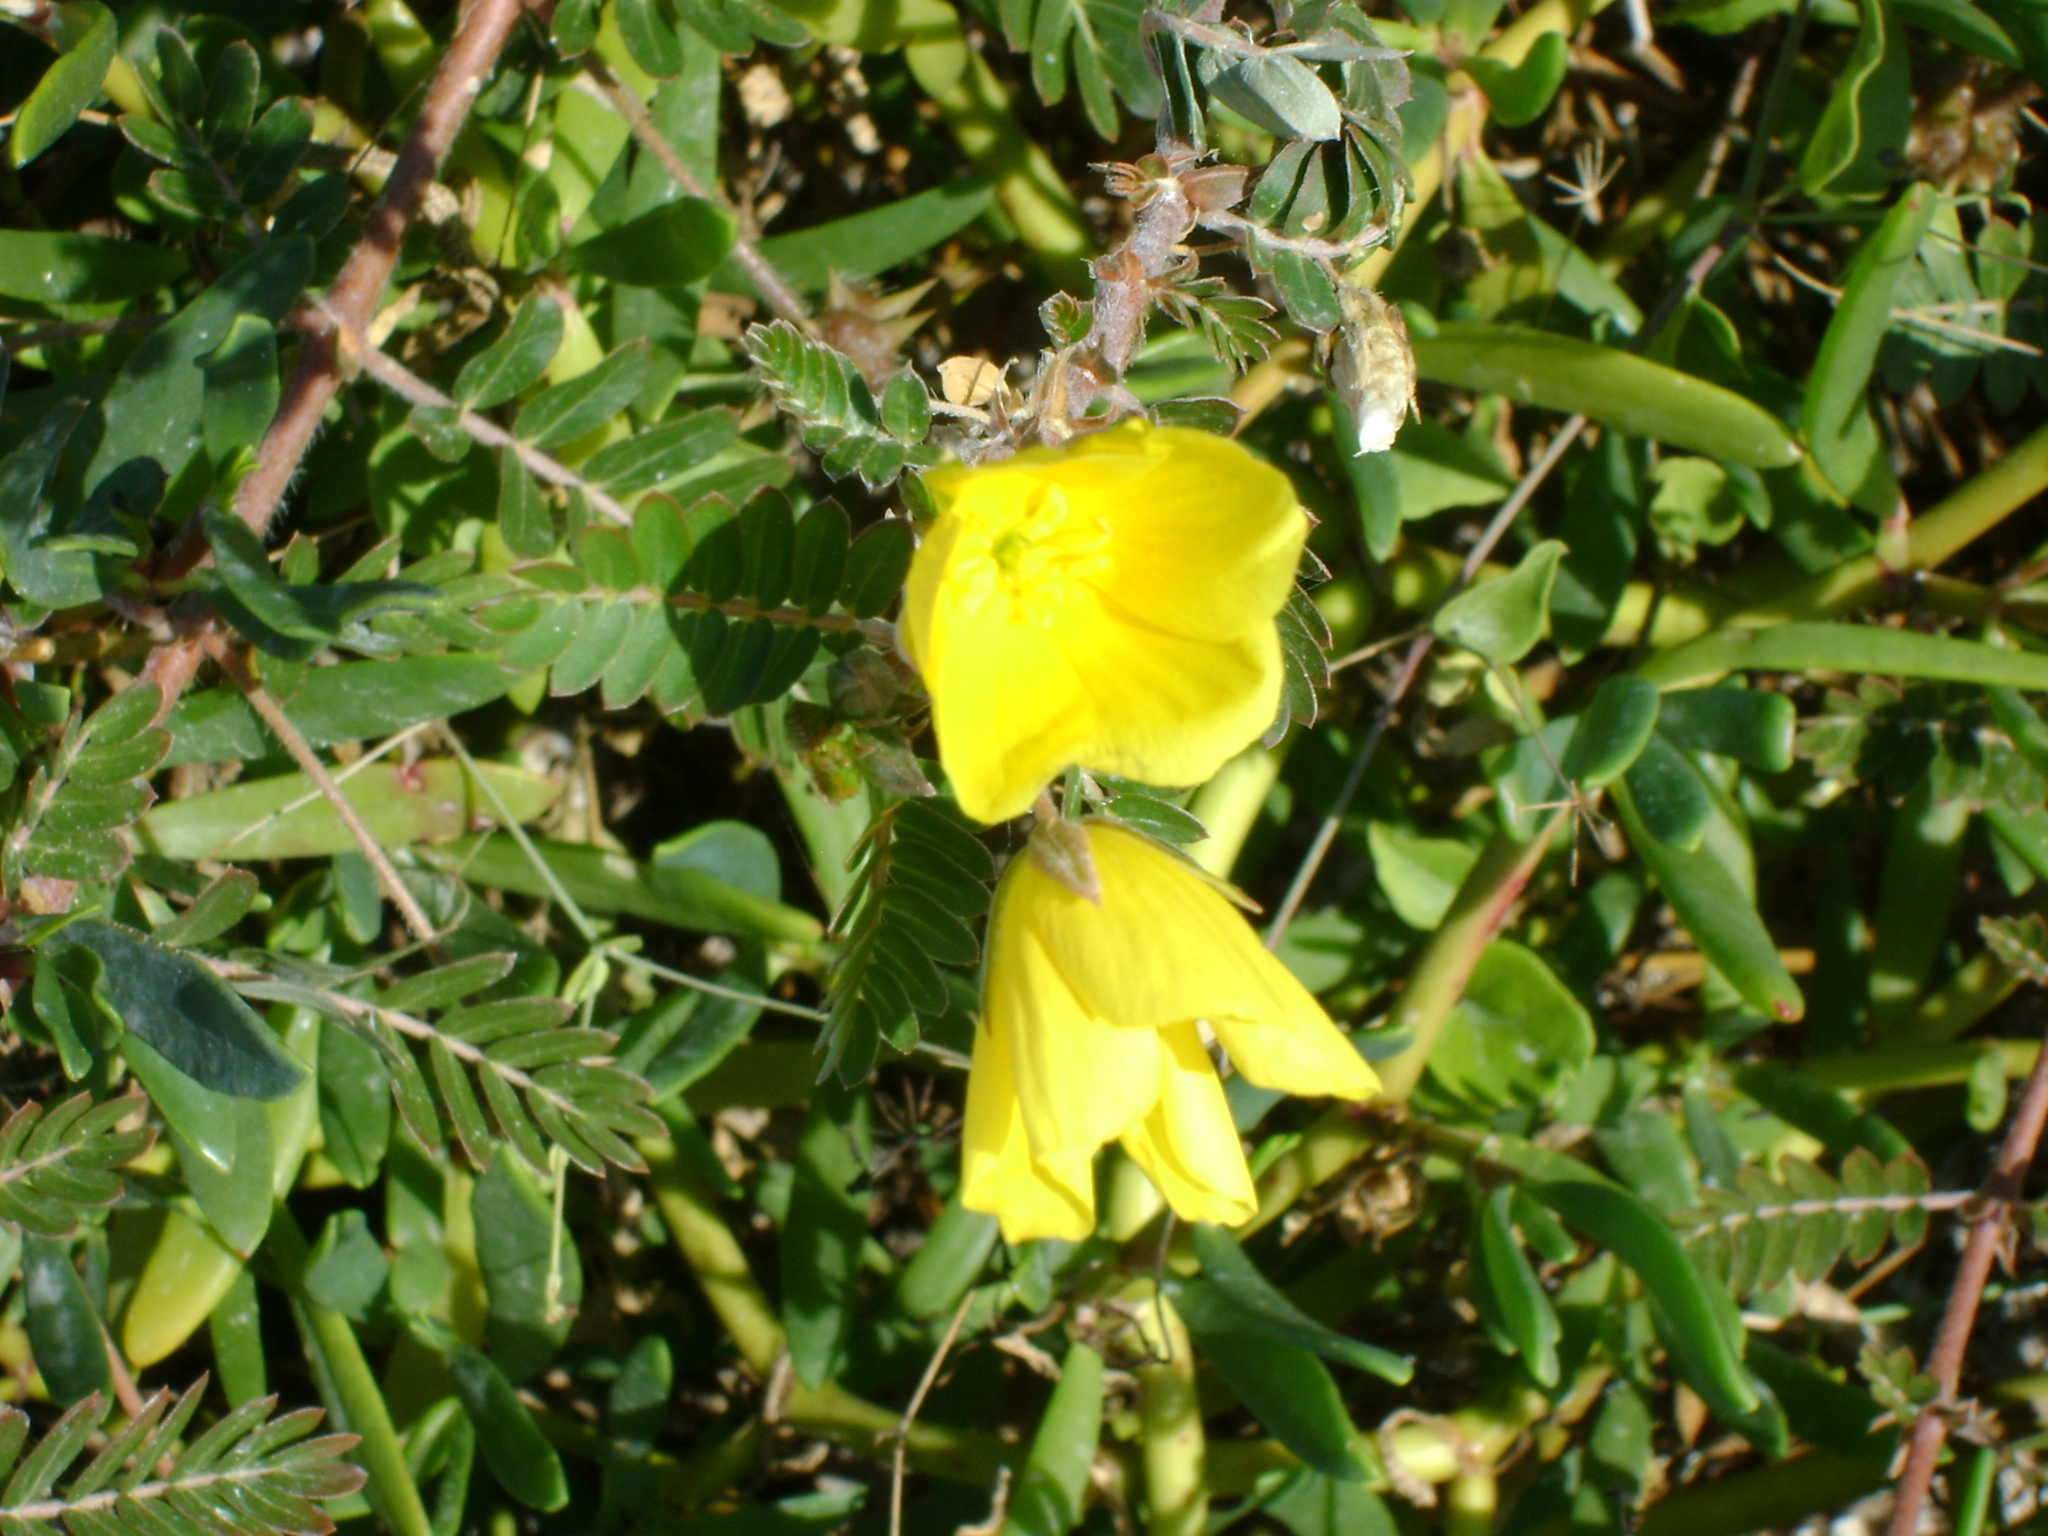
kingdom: Plantae
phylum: Tracheophyta
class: Magnoliopsida
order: Zygophyllales
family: Zygophyllaceae
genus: Tribulus
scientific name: Tribulus cistoides
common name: Jamaican feverplant
